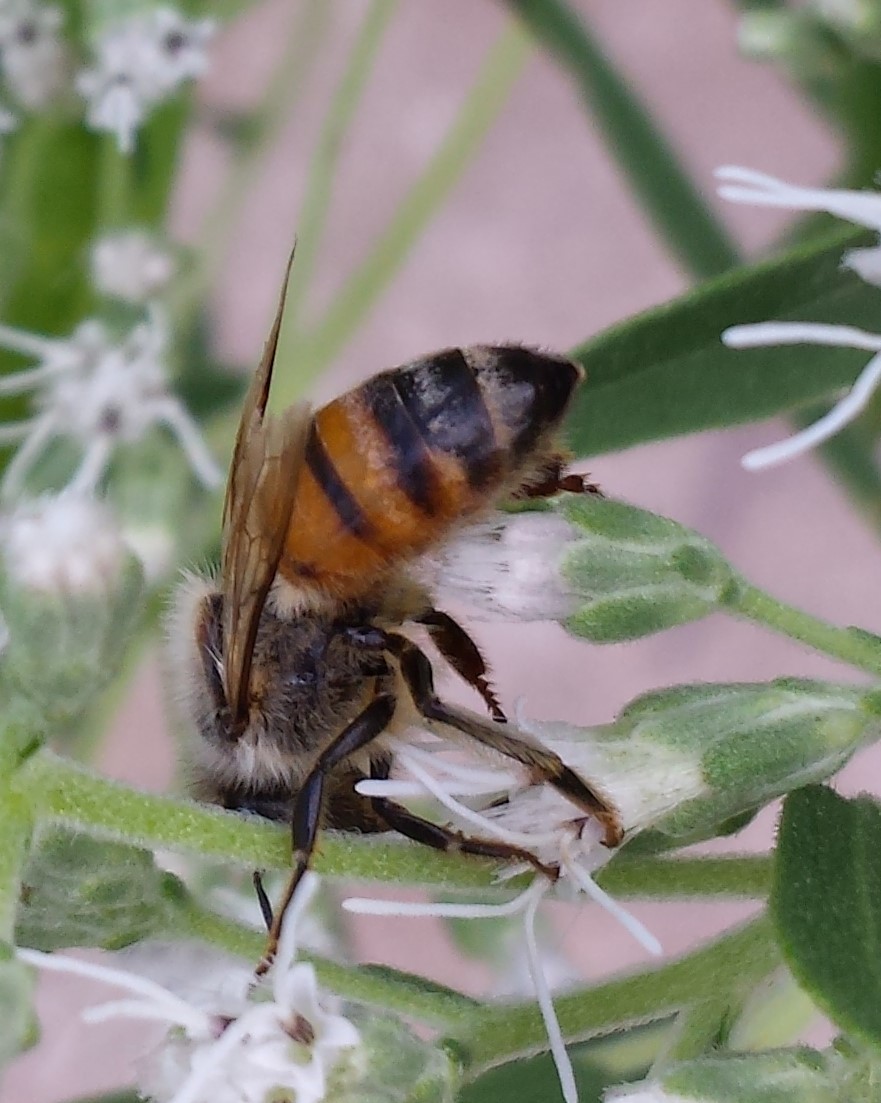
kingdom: Animalia
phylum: Arthropoda
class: Insecta
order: Hymenoptera
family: Apidae
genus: Apis
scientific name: Apis mellifera
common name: Honey bee
